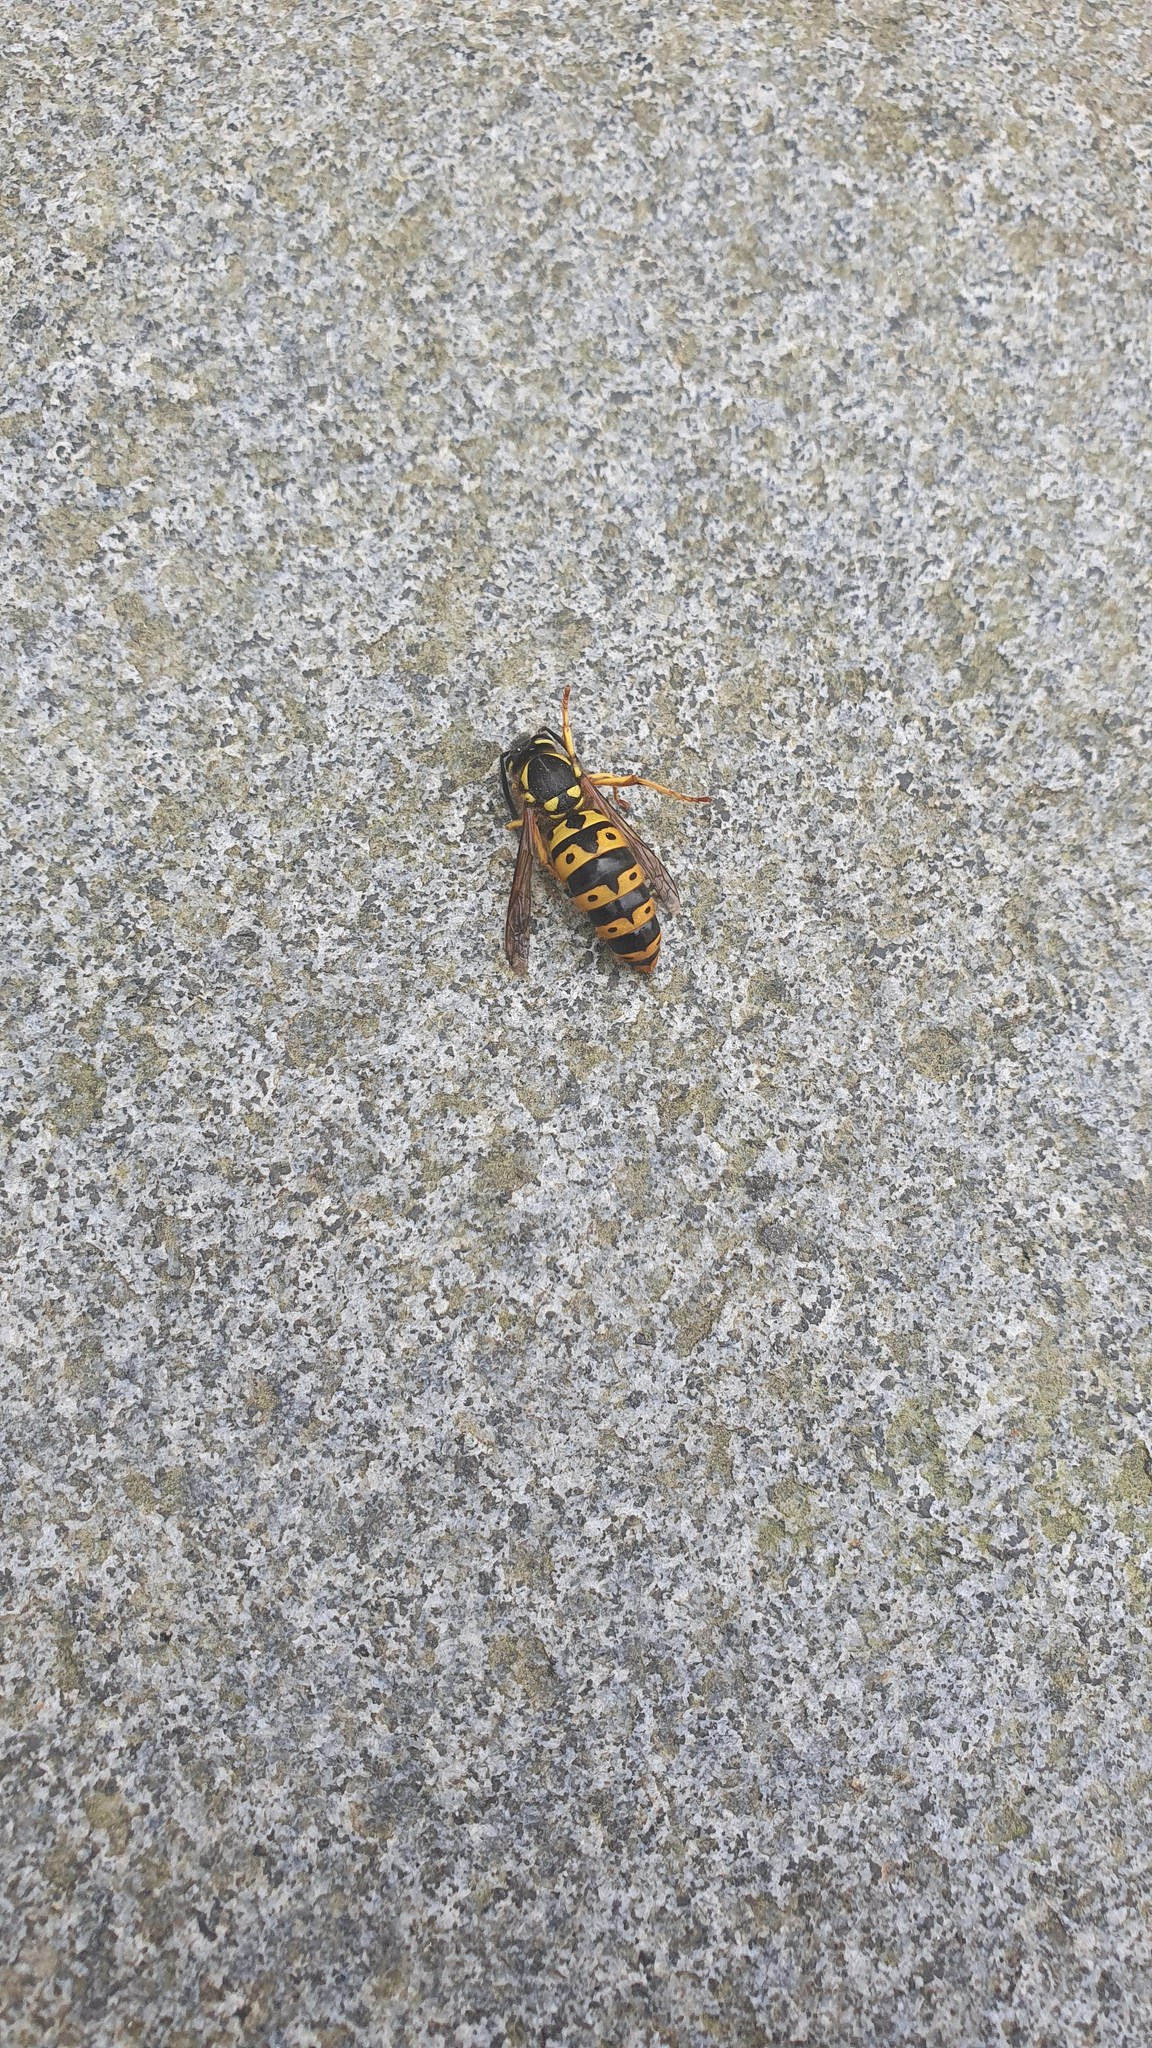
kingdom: Animalia
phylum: Arthropoda
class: Insecta
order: Hymenoptera
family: Vespidae
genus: Vespula
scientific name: Vespula germanica
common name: German wasp
